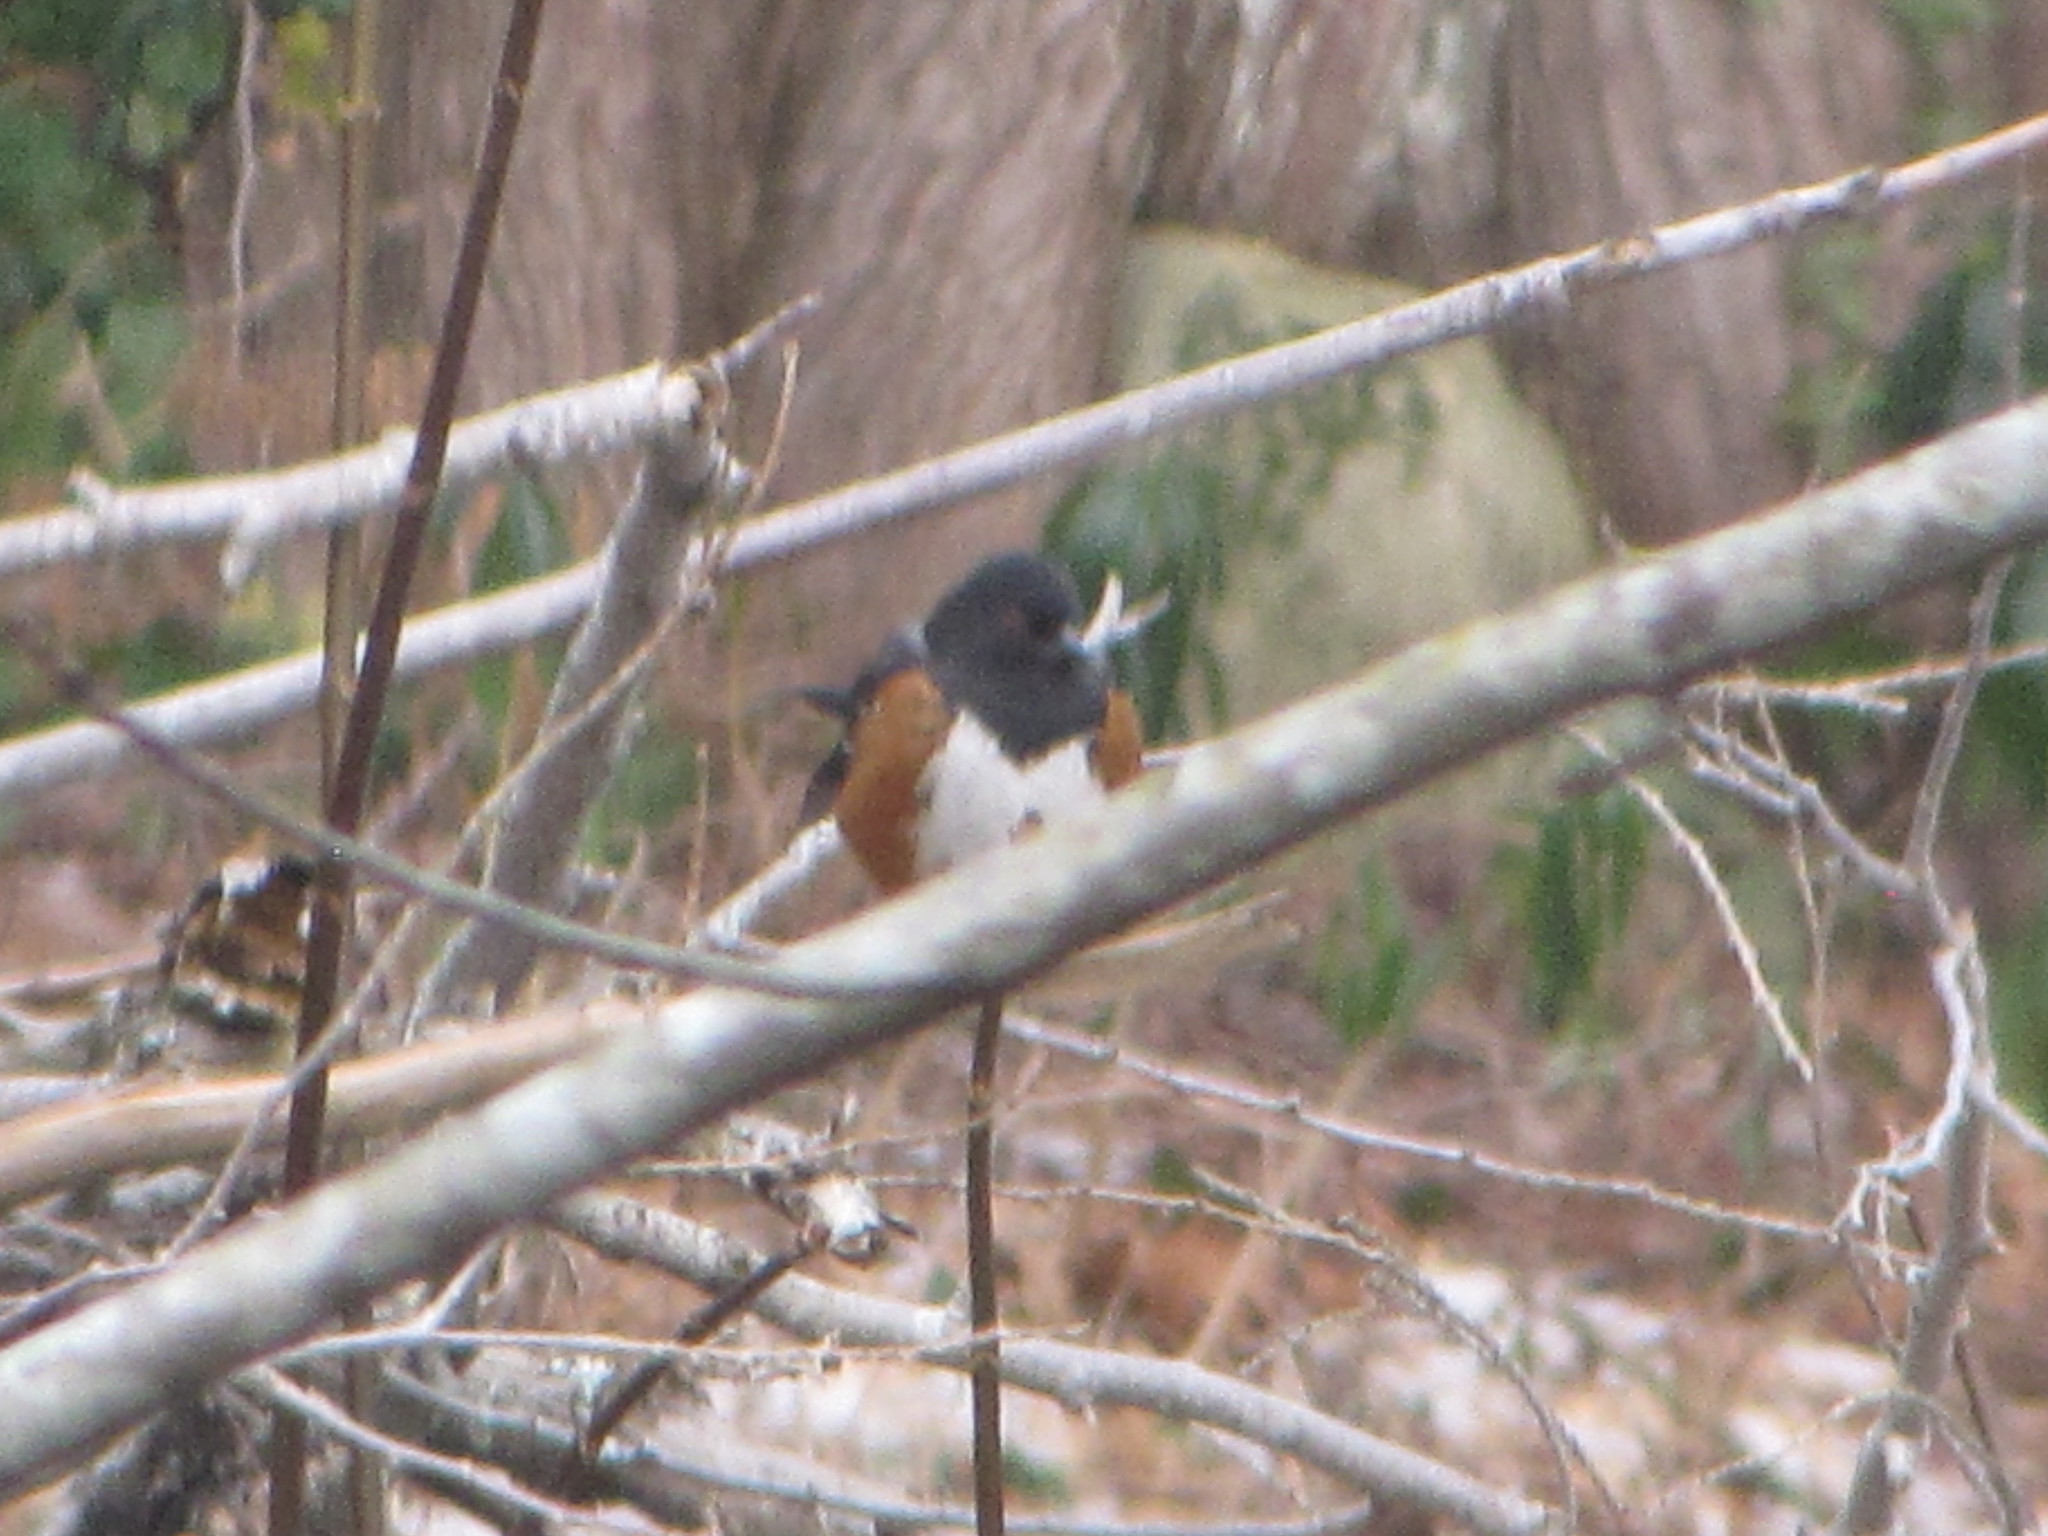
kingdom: Animalia
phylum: Chordata
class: Aves
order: Passeriformes
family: Passerellidae
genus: Pipilo
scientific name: Pipilo maculatus
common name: Spotted towhee
